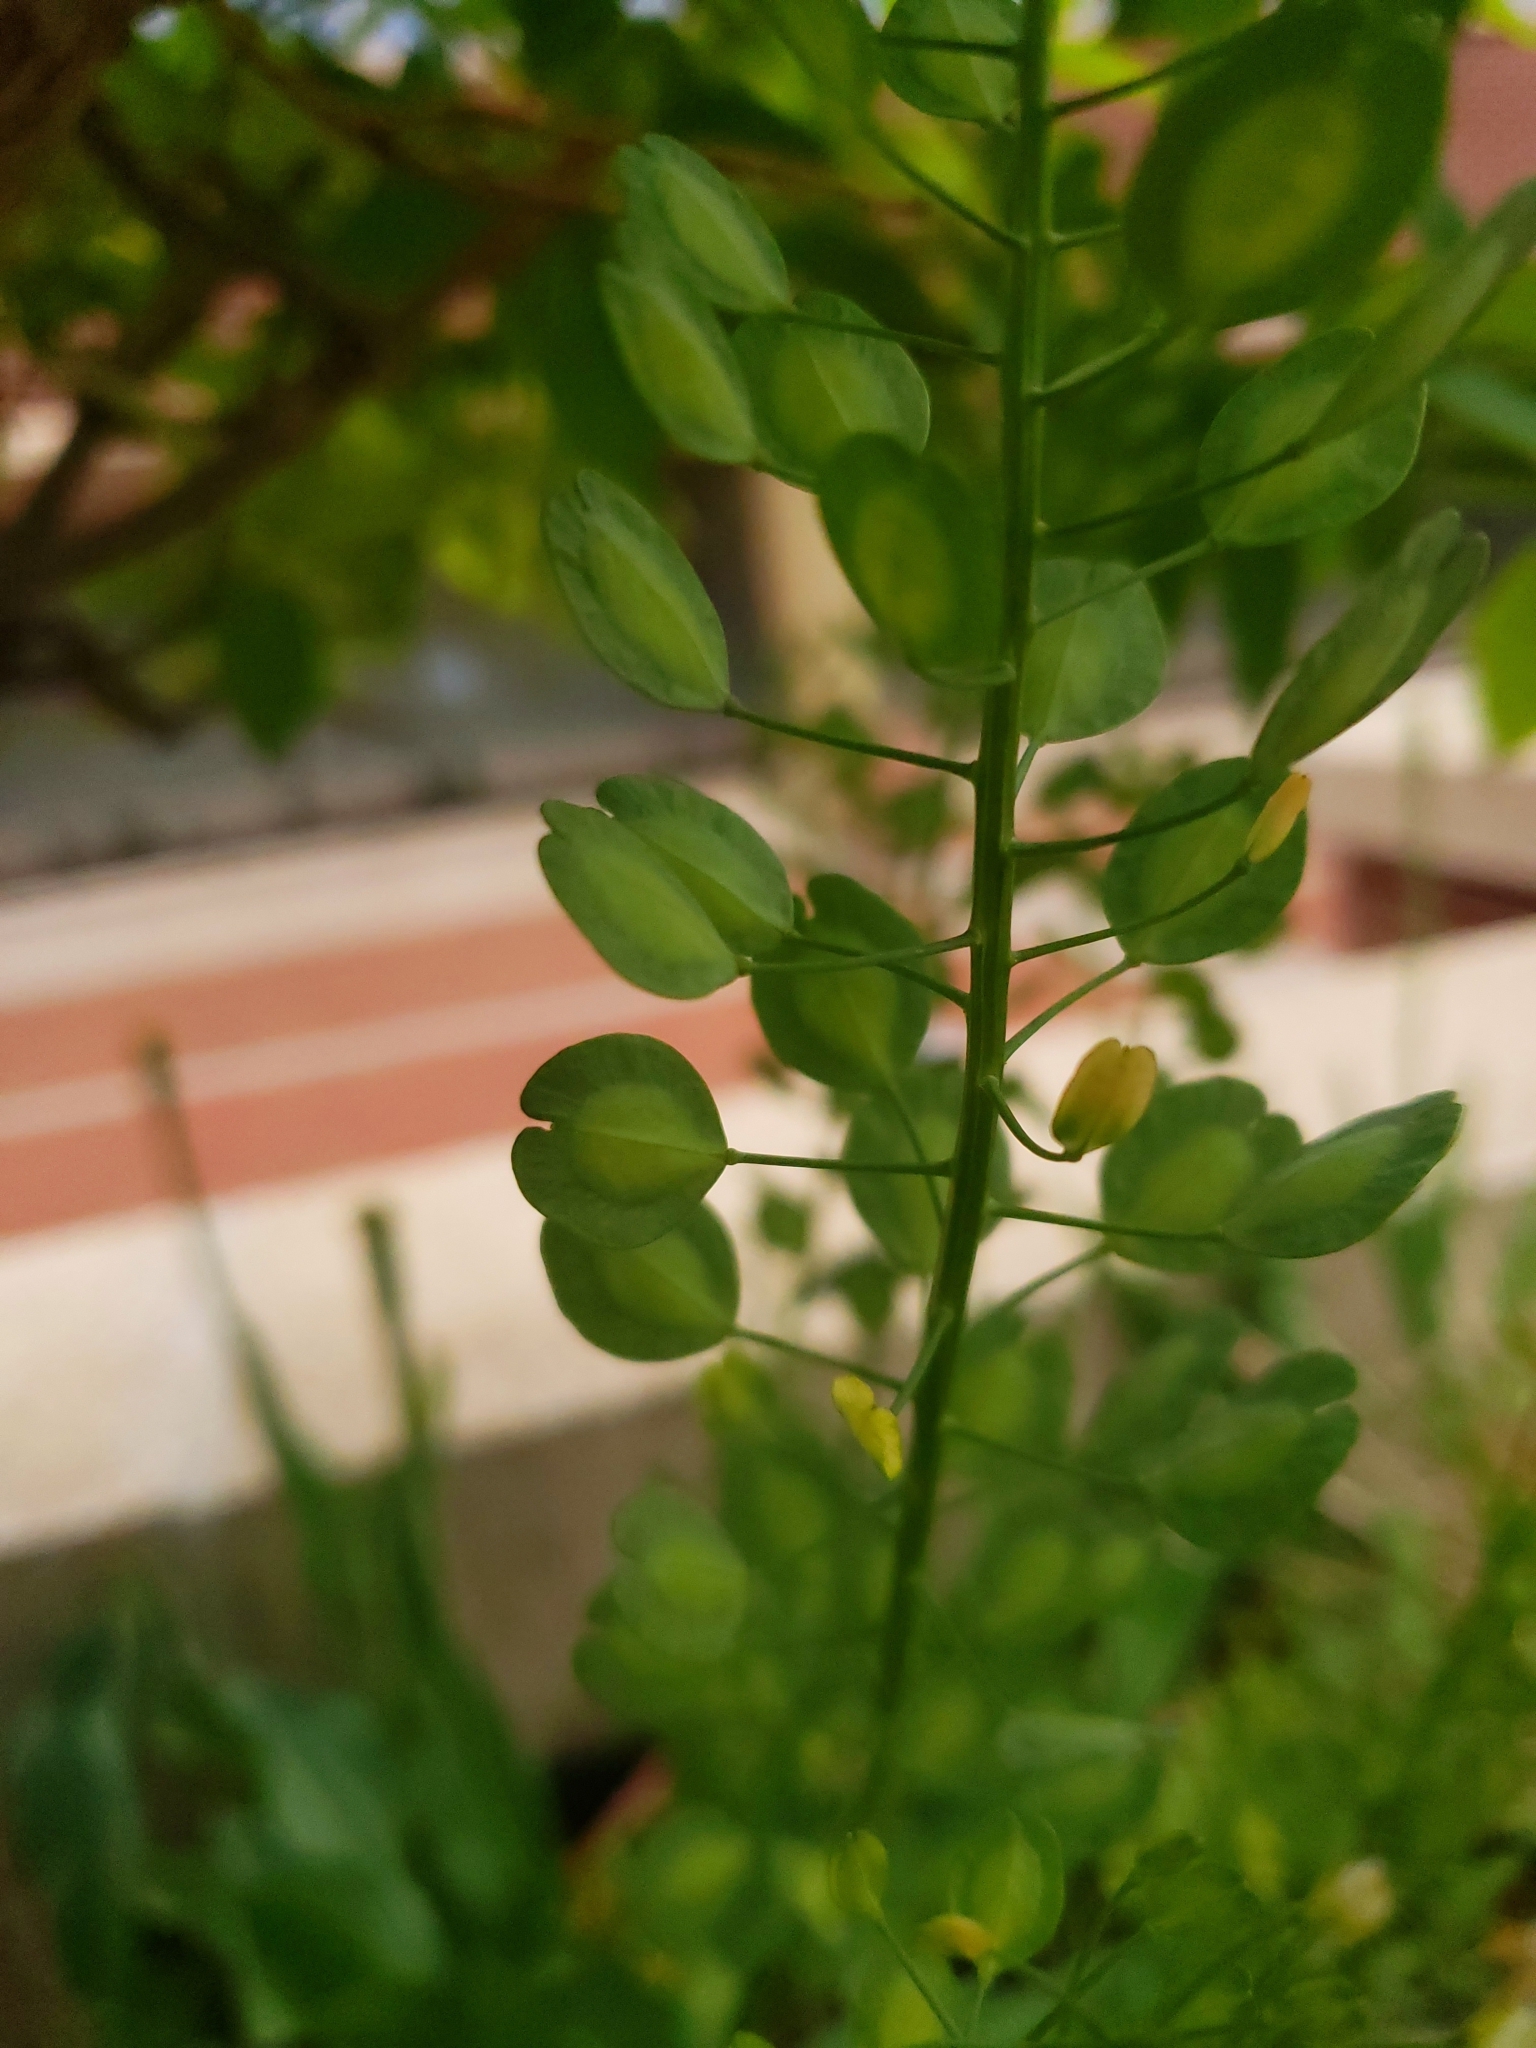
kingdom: Plantae
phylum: Tracheophyta
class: Magnoliopsida
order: Brassicales
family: Brassicaceae
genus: Thlaspi
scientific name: Thlaspi arvense
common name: Field pennycress
